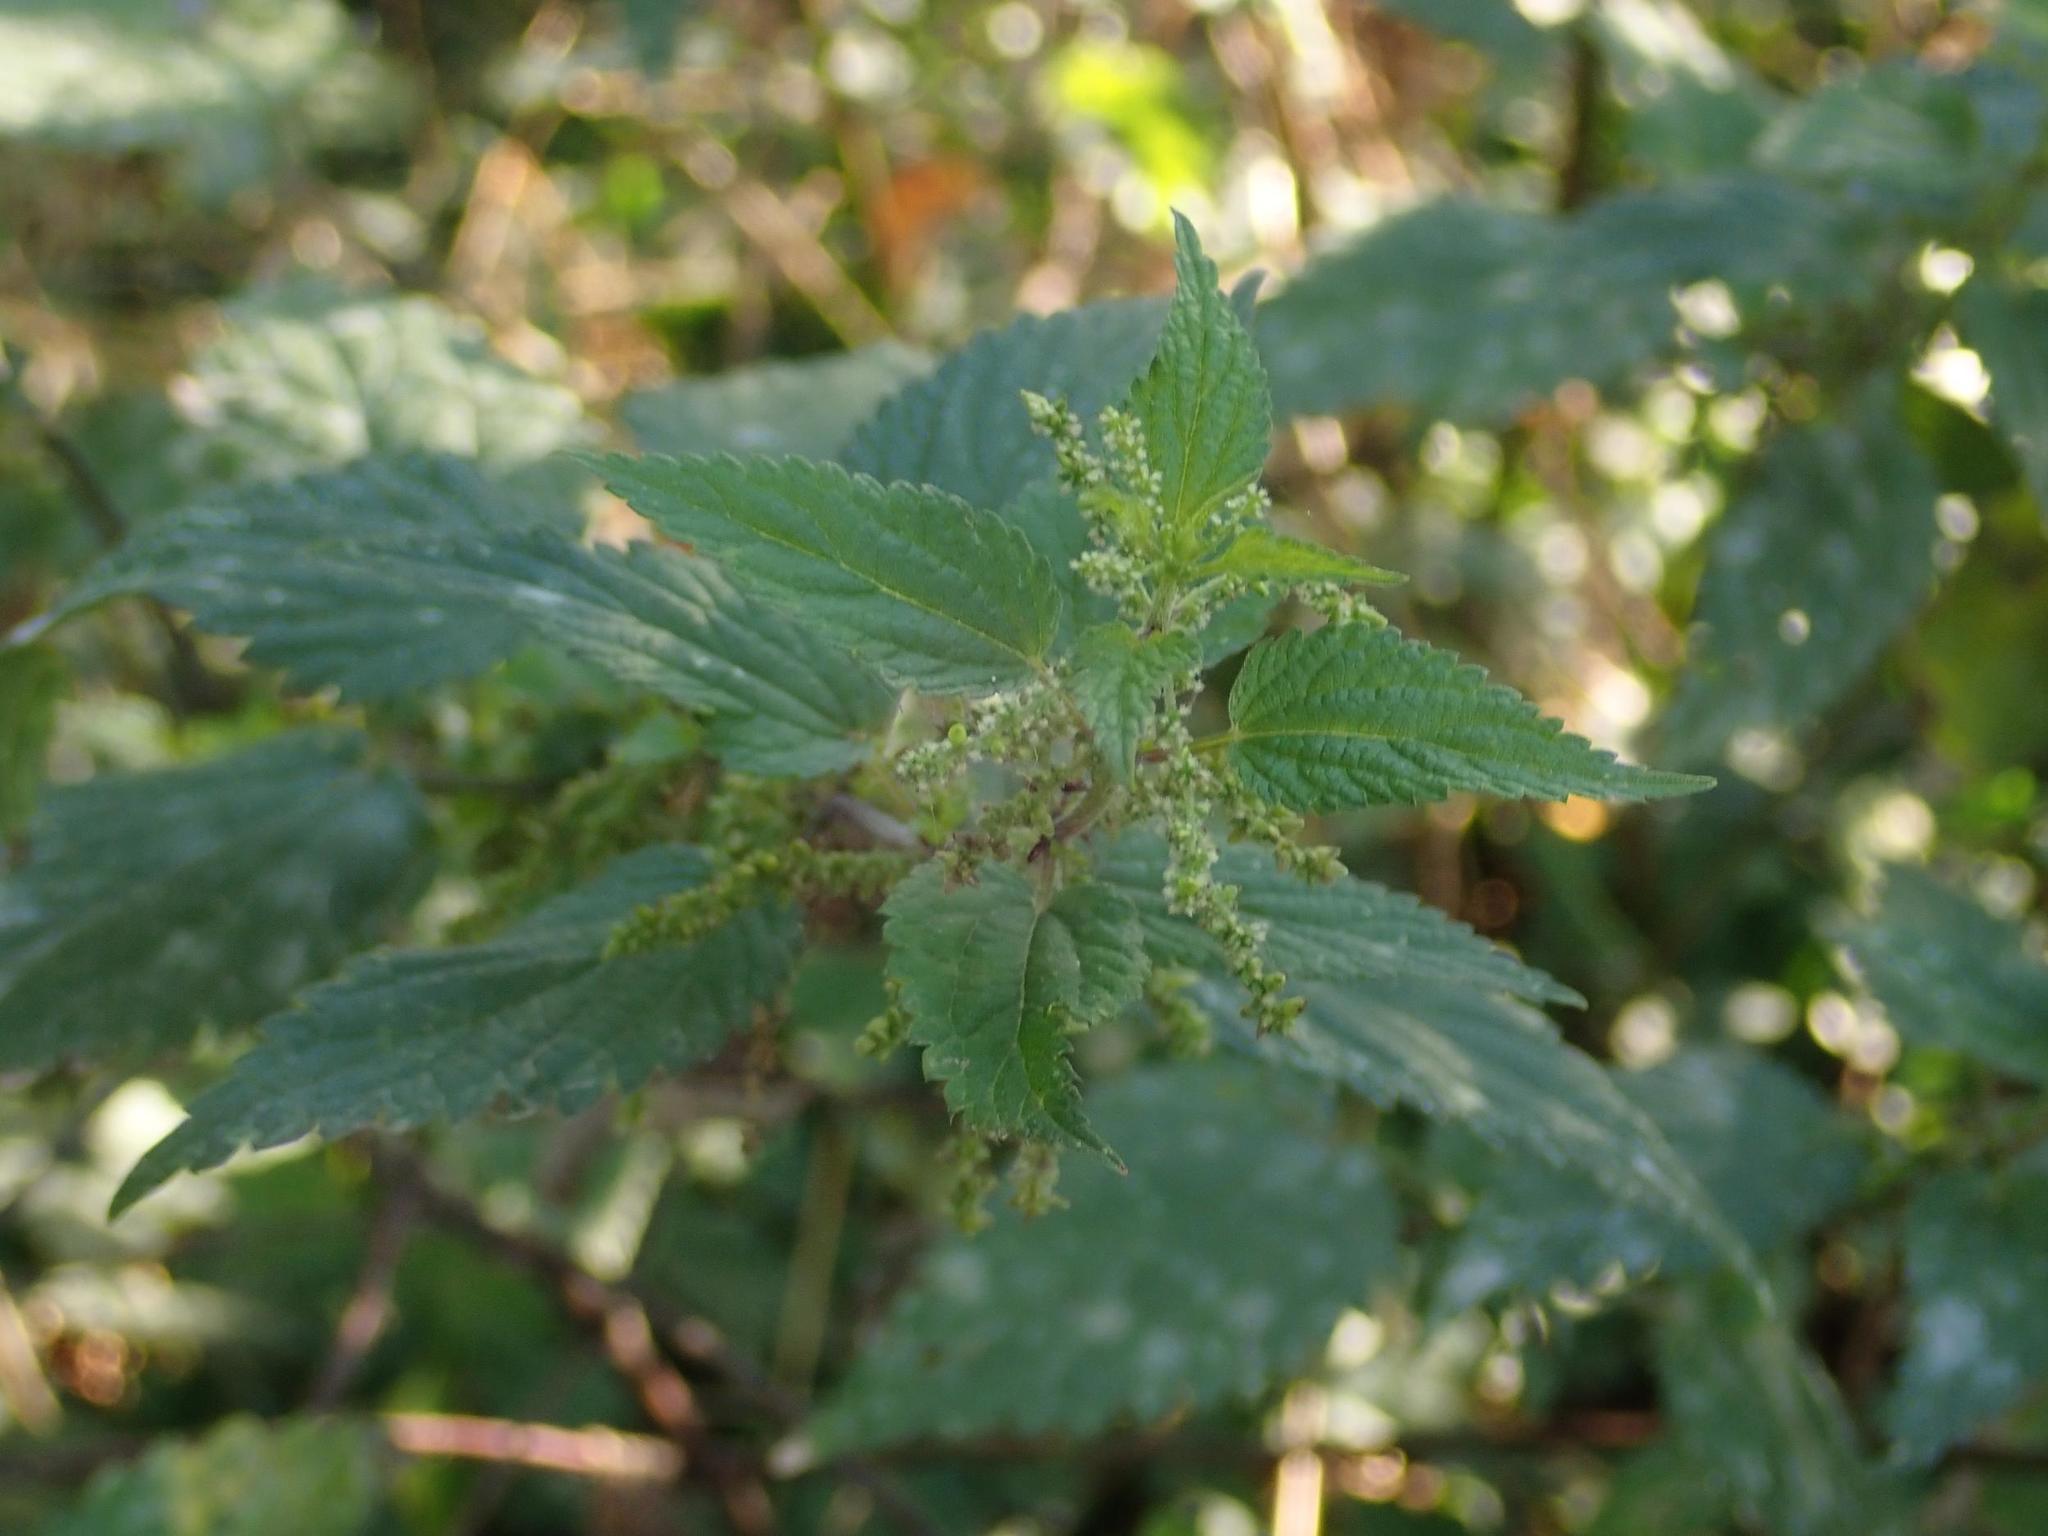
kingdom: Plantae
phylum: Tracheophyta
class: Magnoliopsida
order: Rosales
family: Urticaceae
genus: Urtica
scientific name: Urtica dioica
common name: Common nettle
